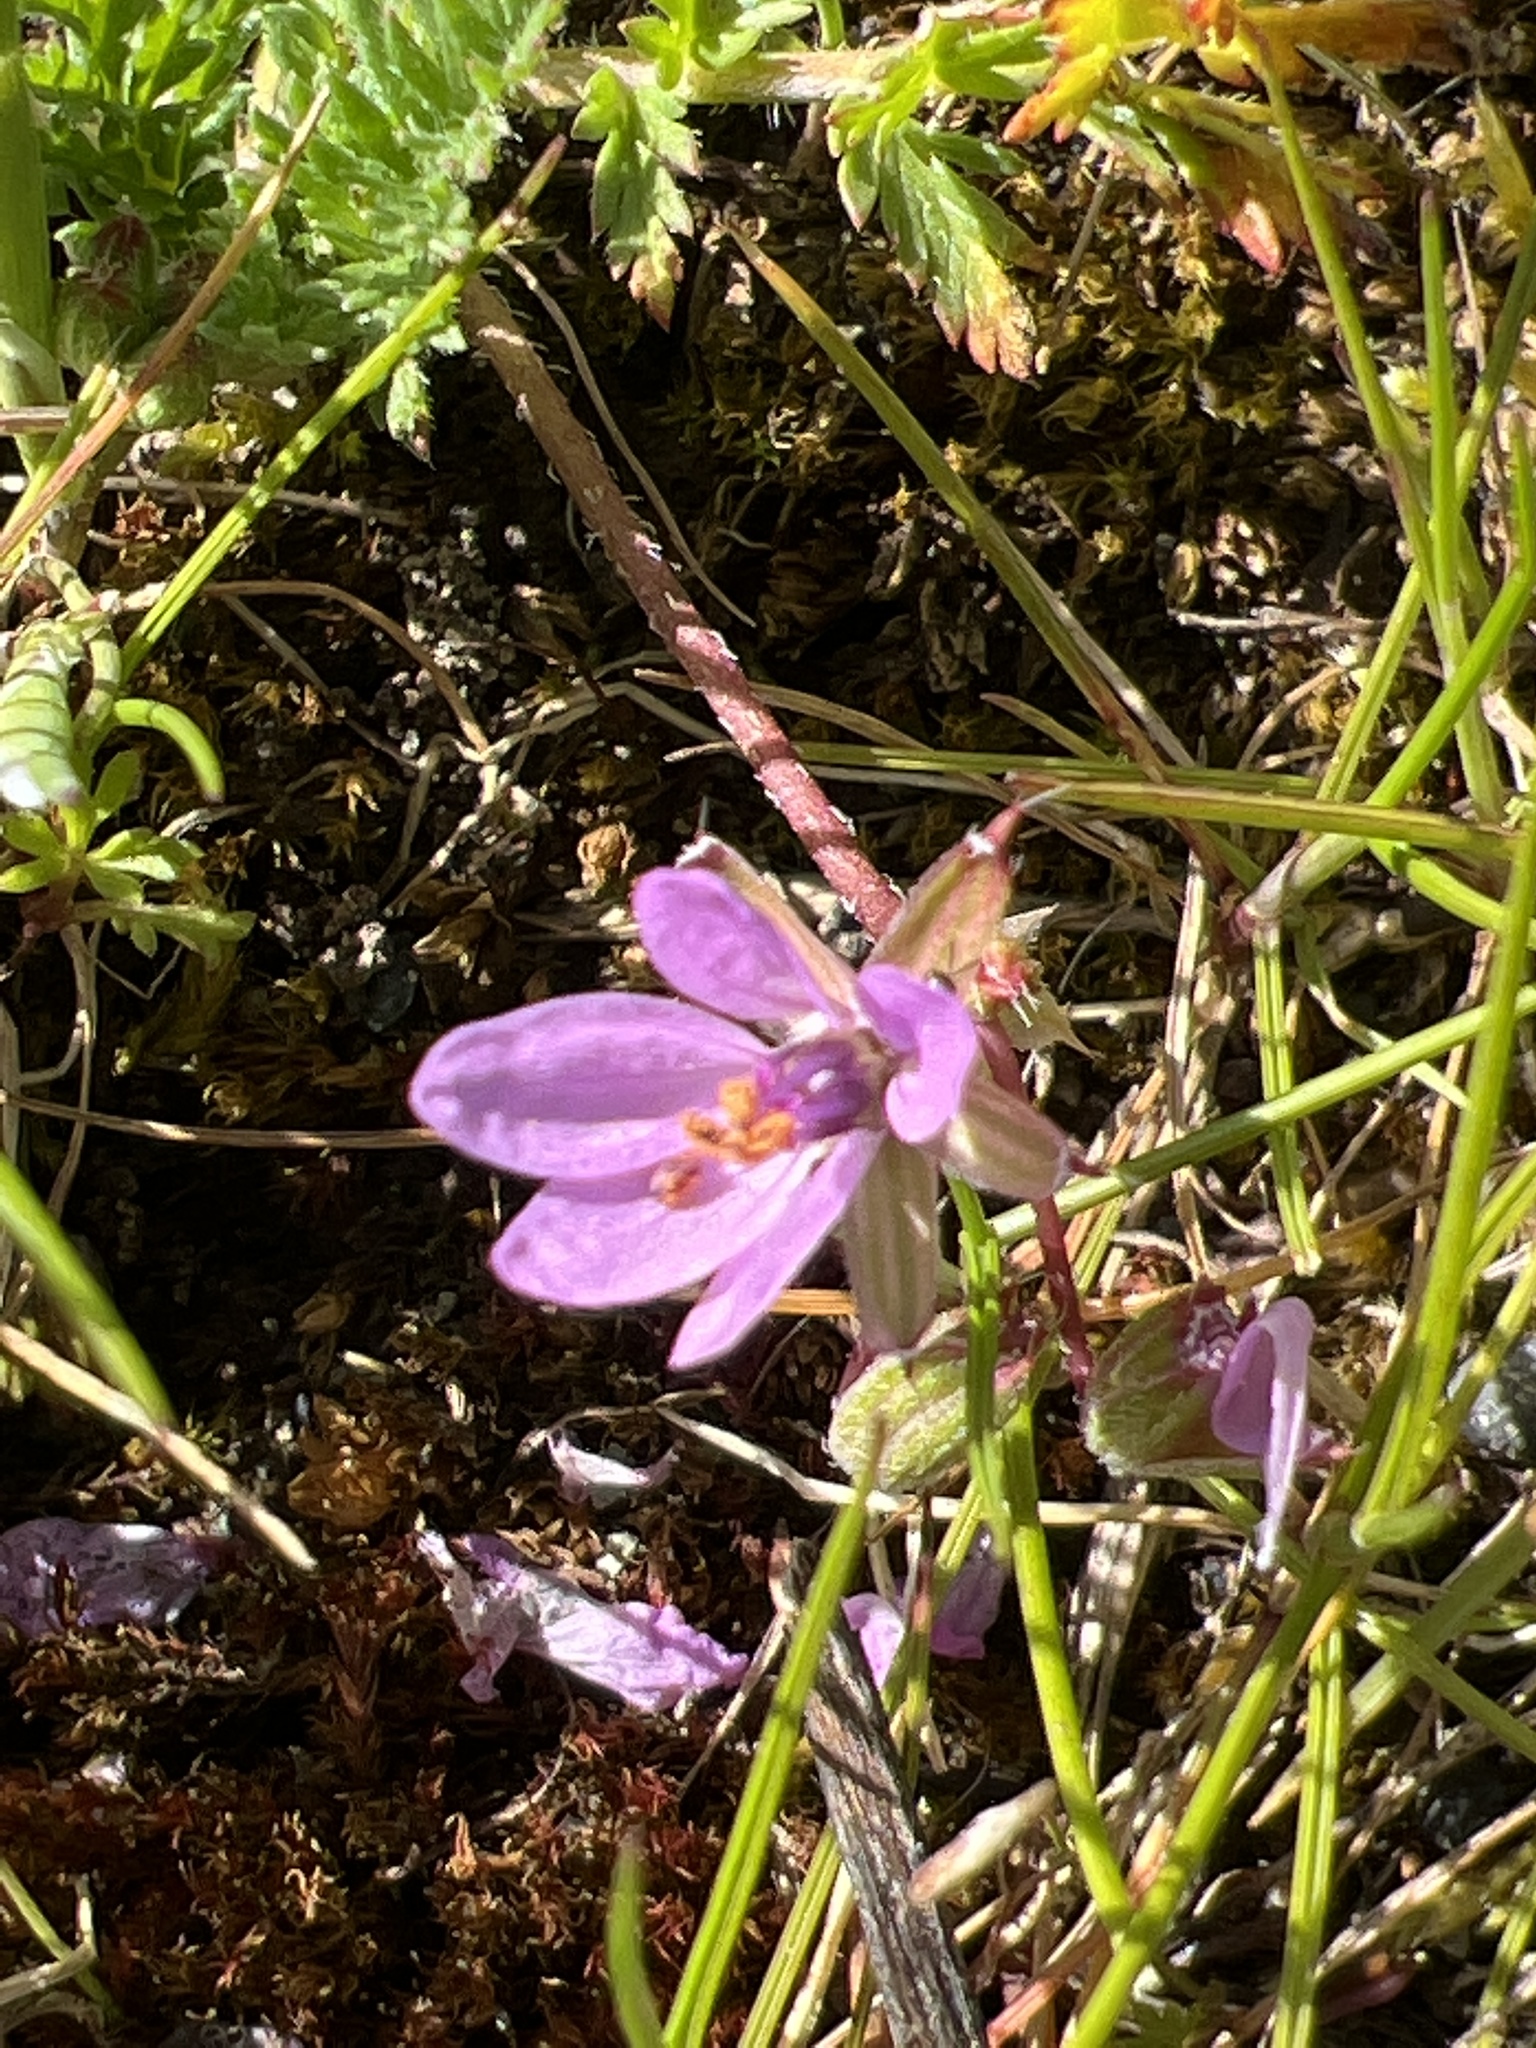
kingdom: Plantae
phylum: Tracheophyta
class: Magnoliopsida
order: Geraniales
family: Geraniaceae
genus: Erodium
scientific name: Erodium cicutarium
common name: Common stork's-bill
